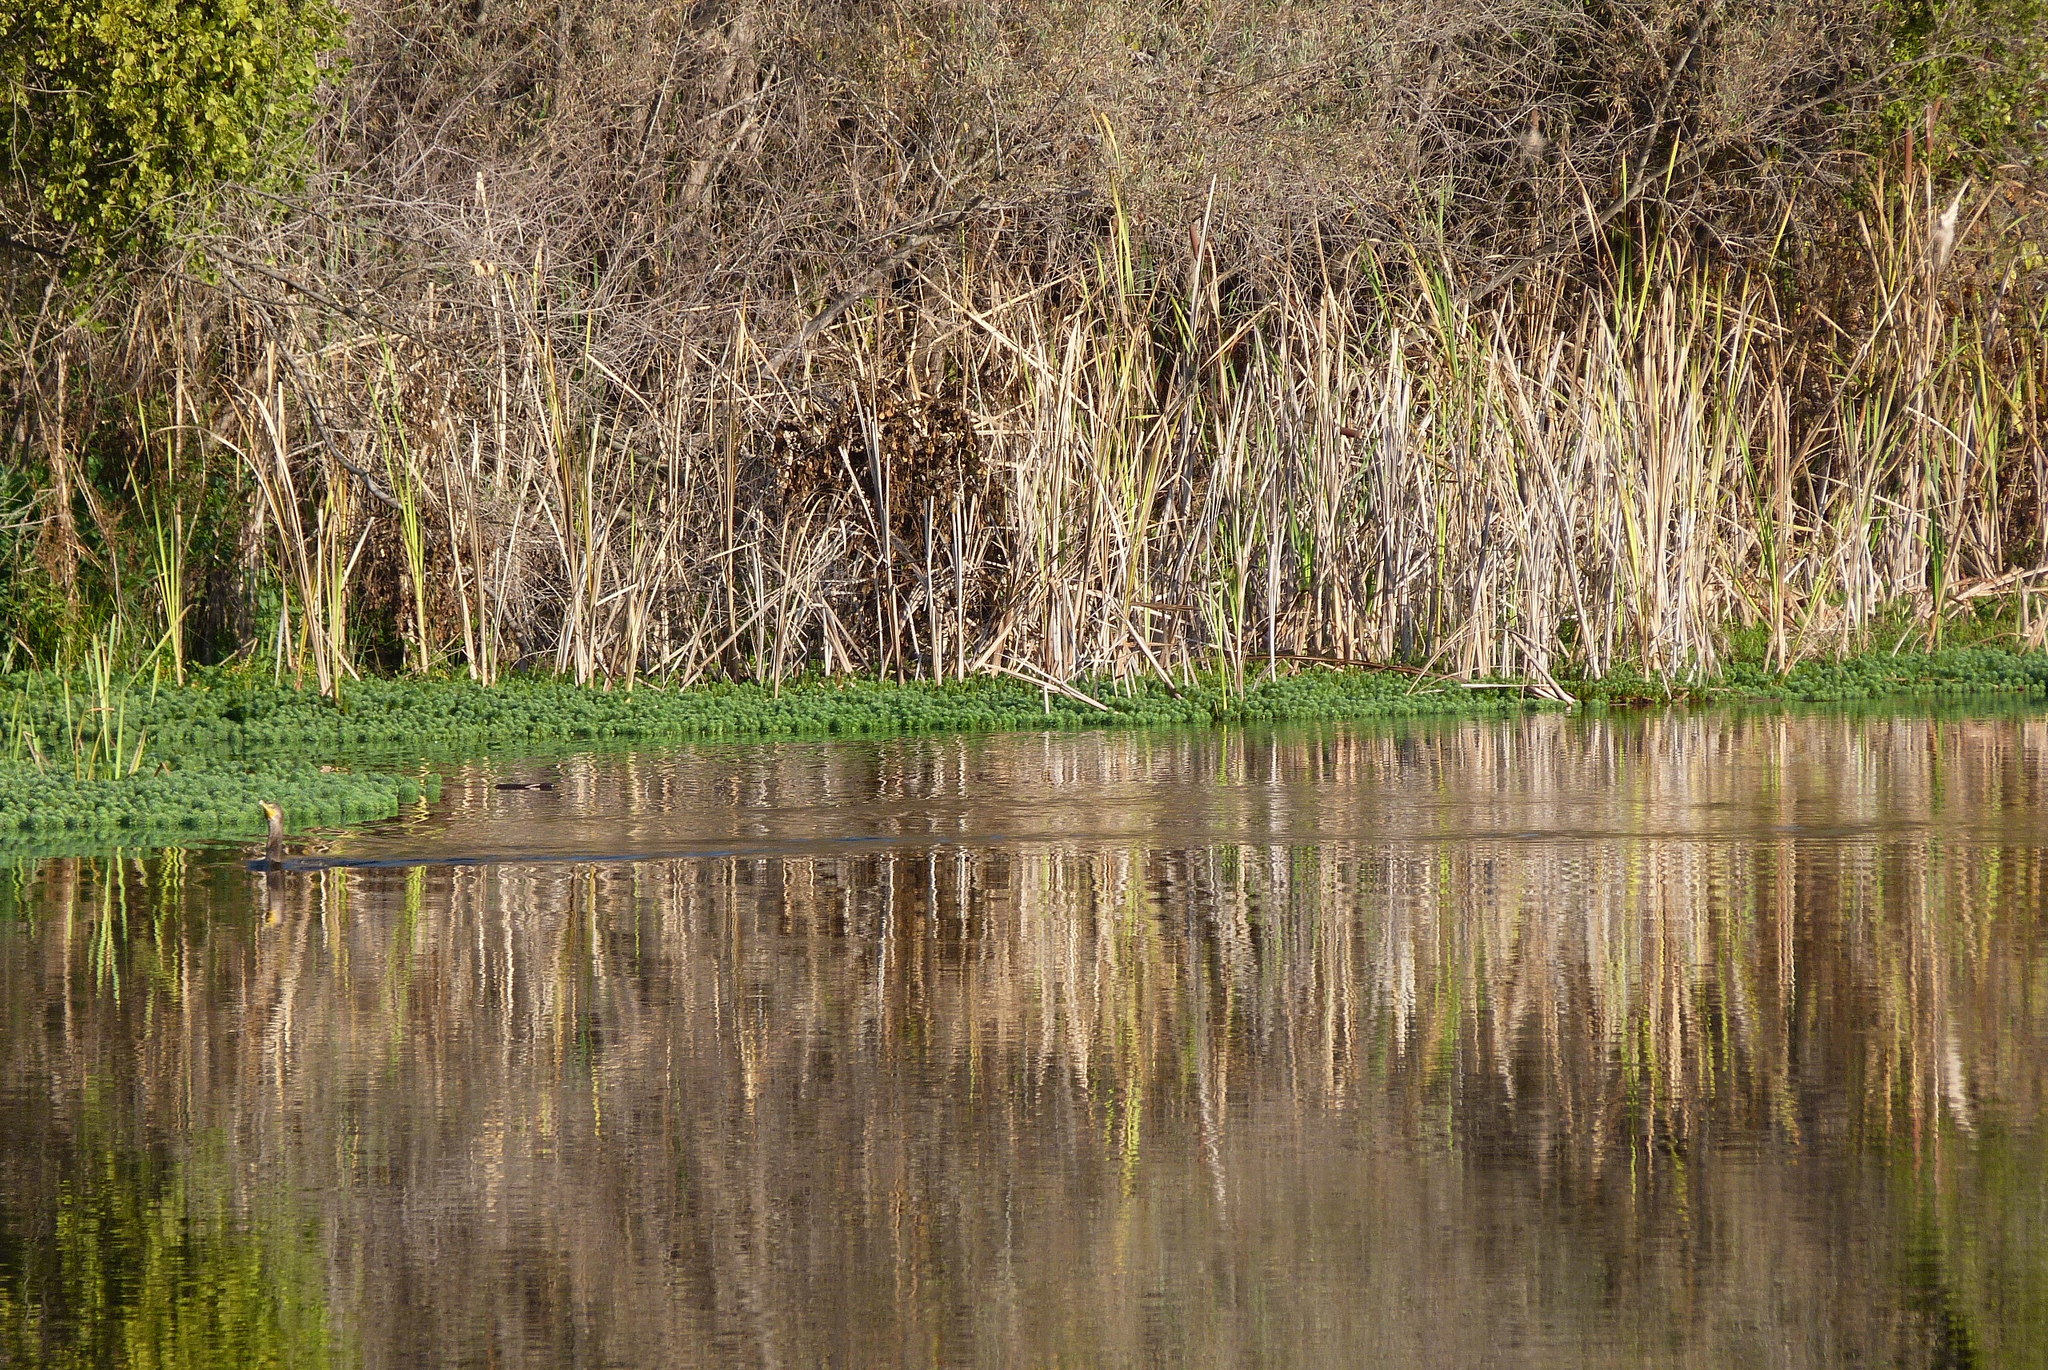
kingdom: Animalia
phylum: Chordata
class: Aves
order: Suliformes
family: Phalacrocoracidae
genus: Phalacrocorax
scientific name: Phalacrocorax auritus
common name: Double-crested cormorant
